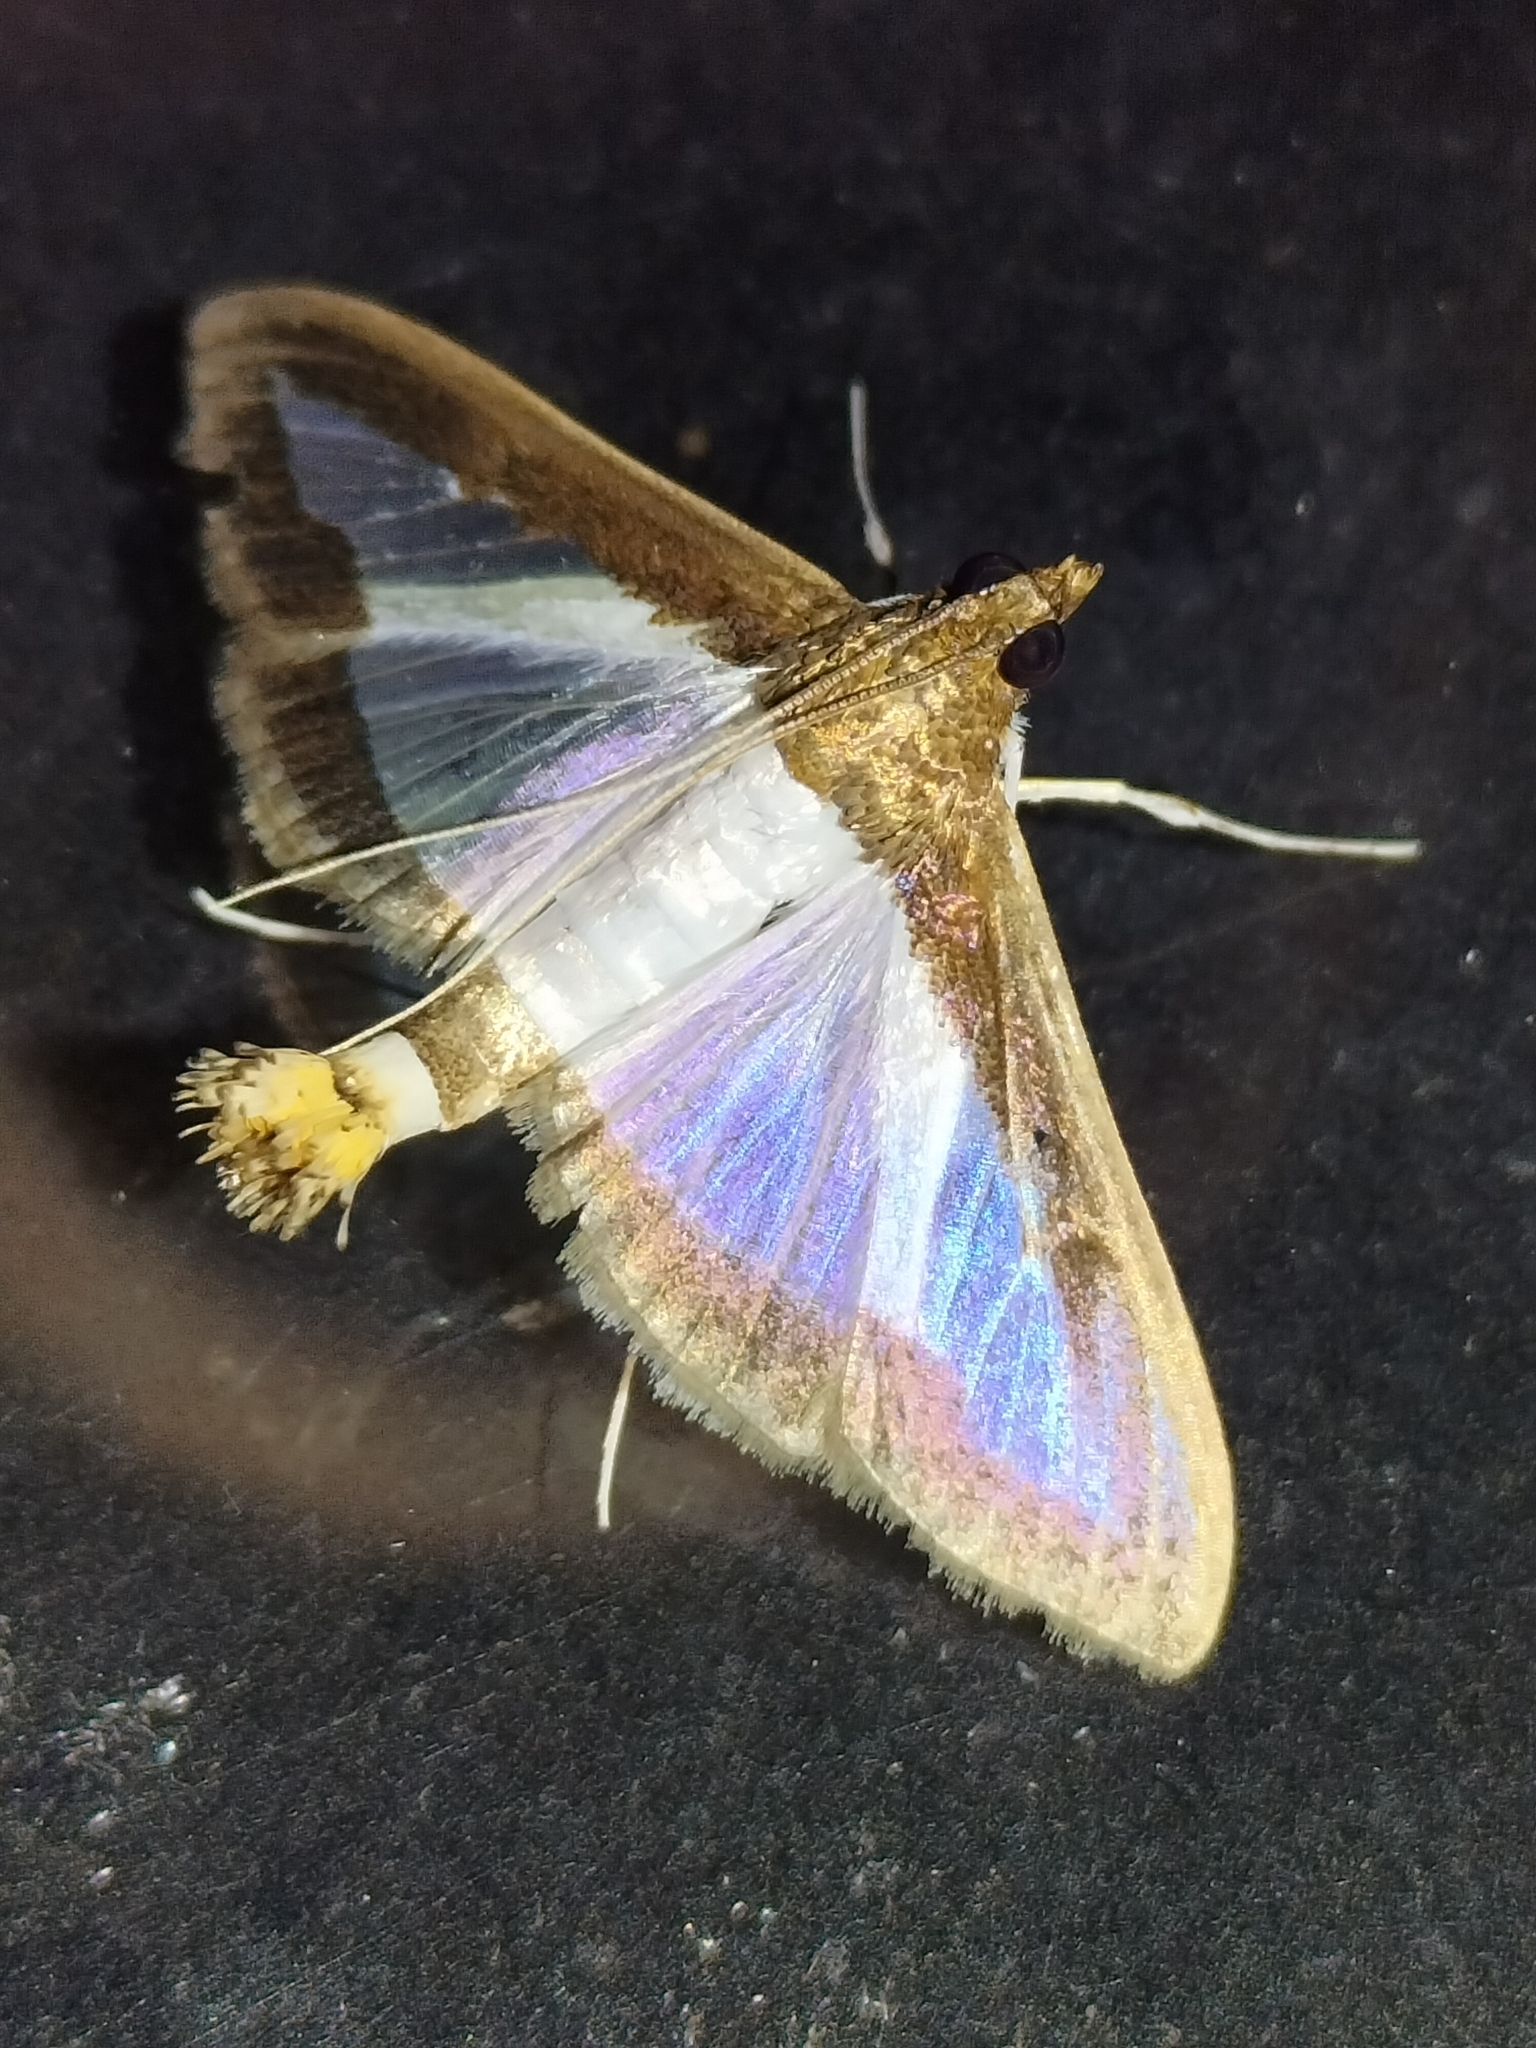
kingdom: Animalia
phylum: Arthropoda
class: Insecta
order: Lepidoptera
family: Crambidae
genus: Diaphania
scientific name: Diaphania indica
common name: Cucumber moth
